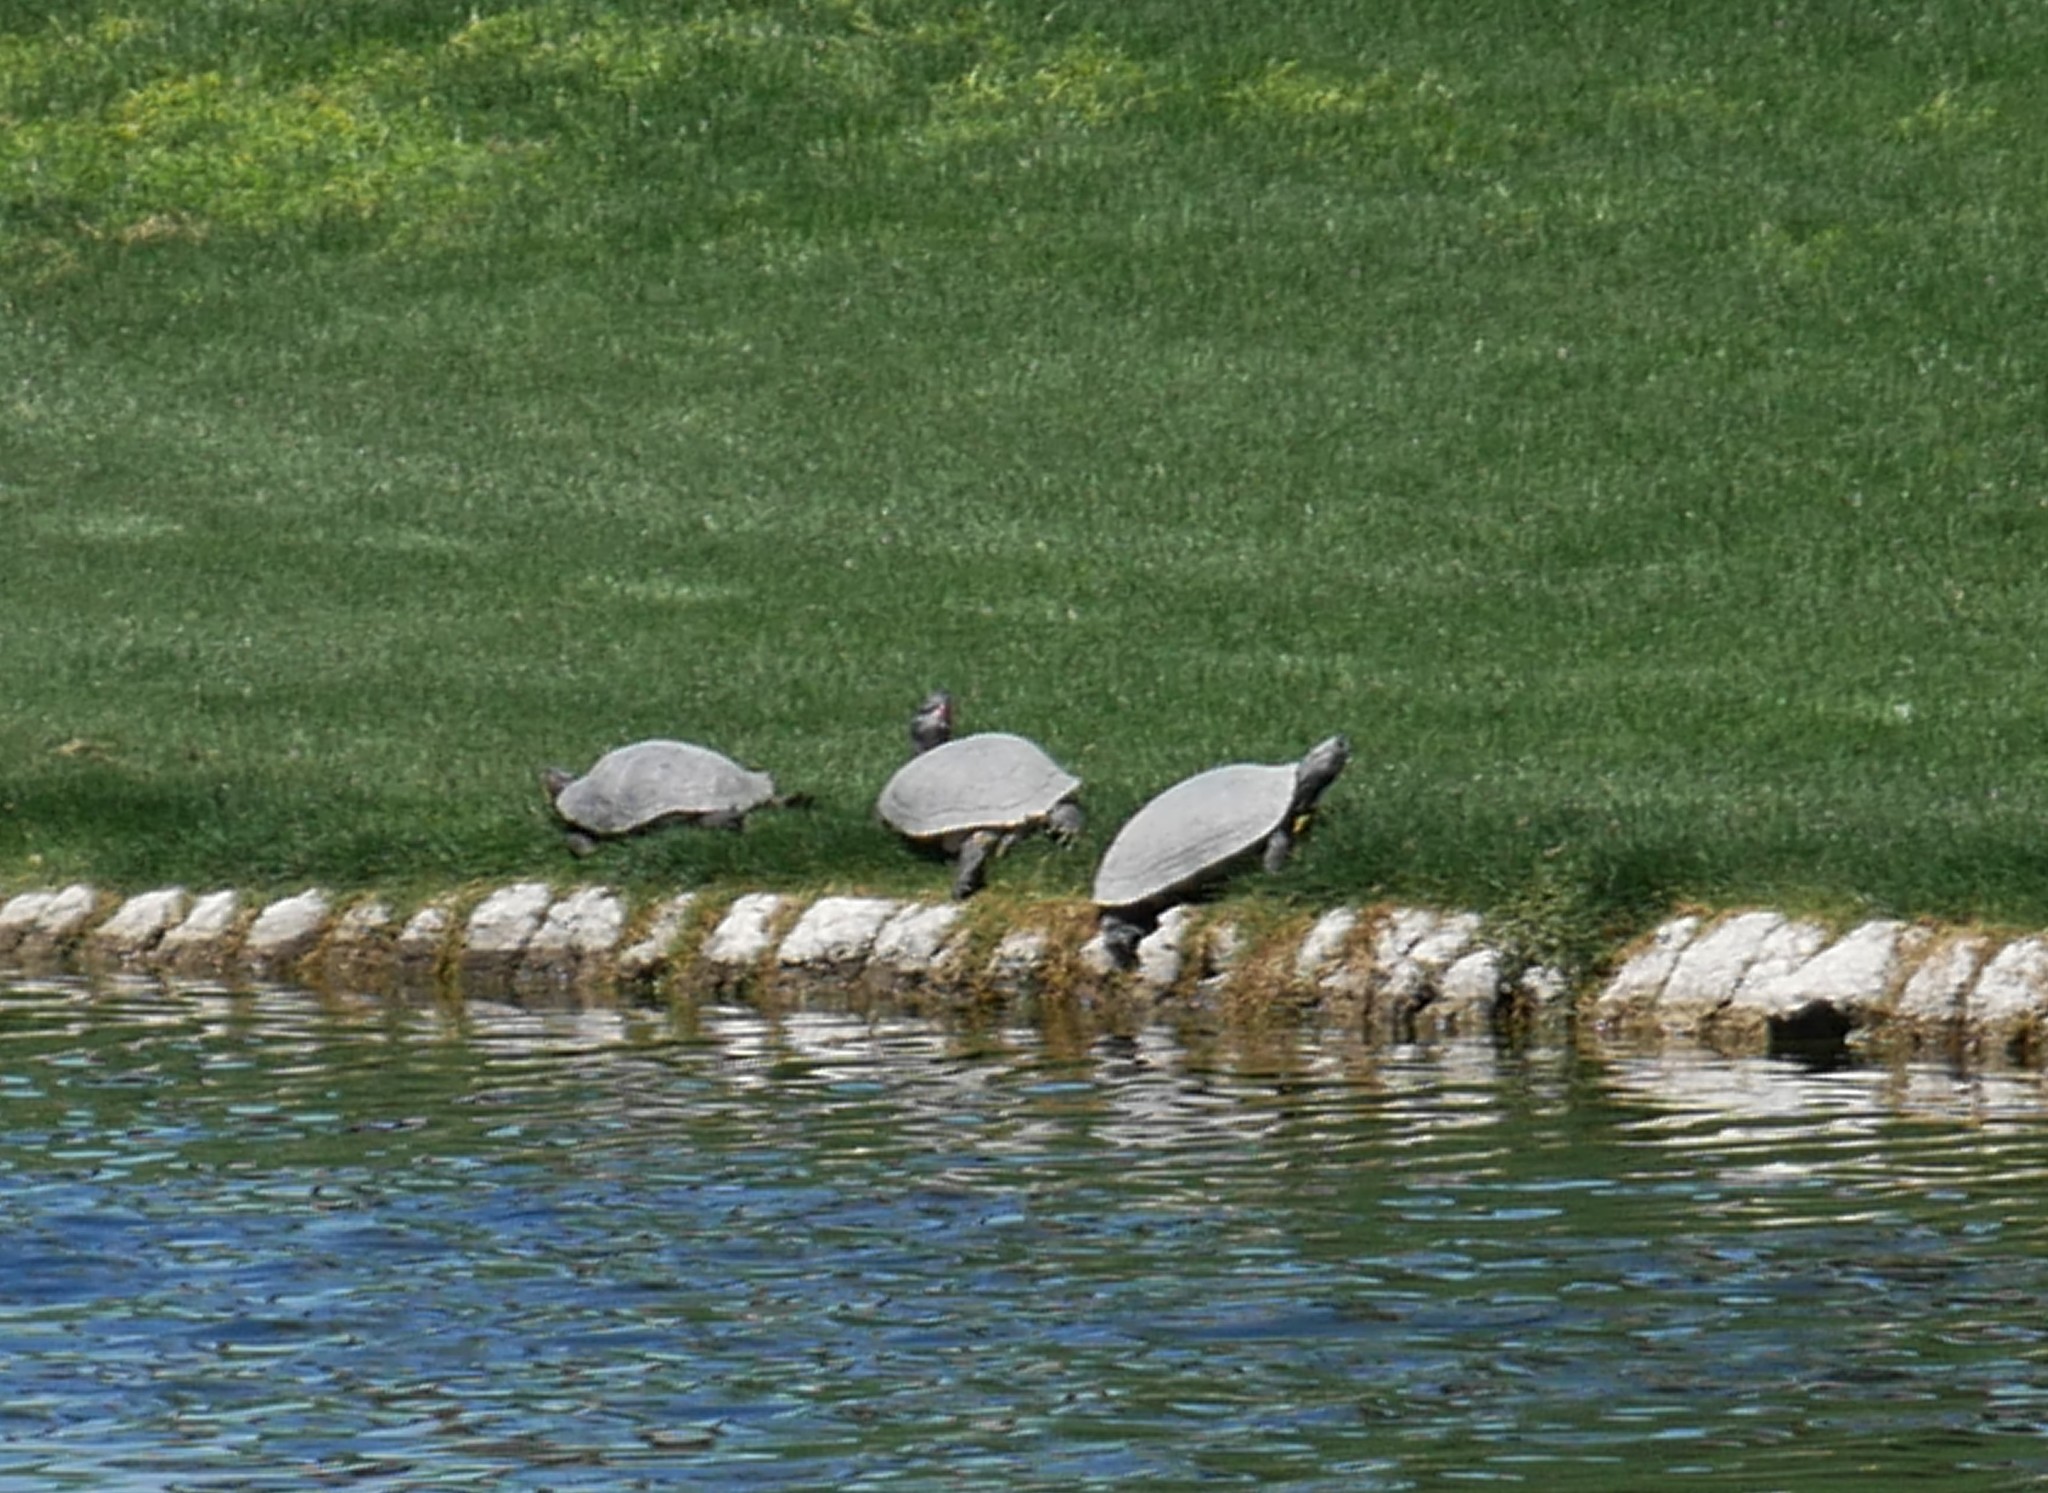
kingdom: Animalia
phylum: Chordata
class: Testudines
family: Emydidae
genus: Trachemys
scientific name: Trachemys scripta
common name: Slider
